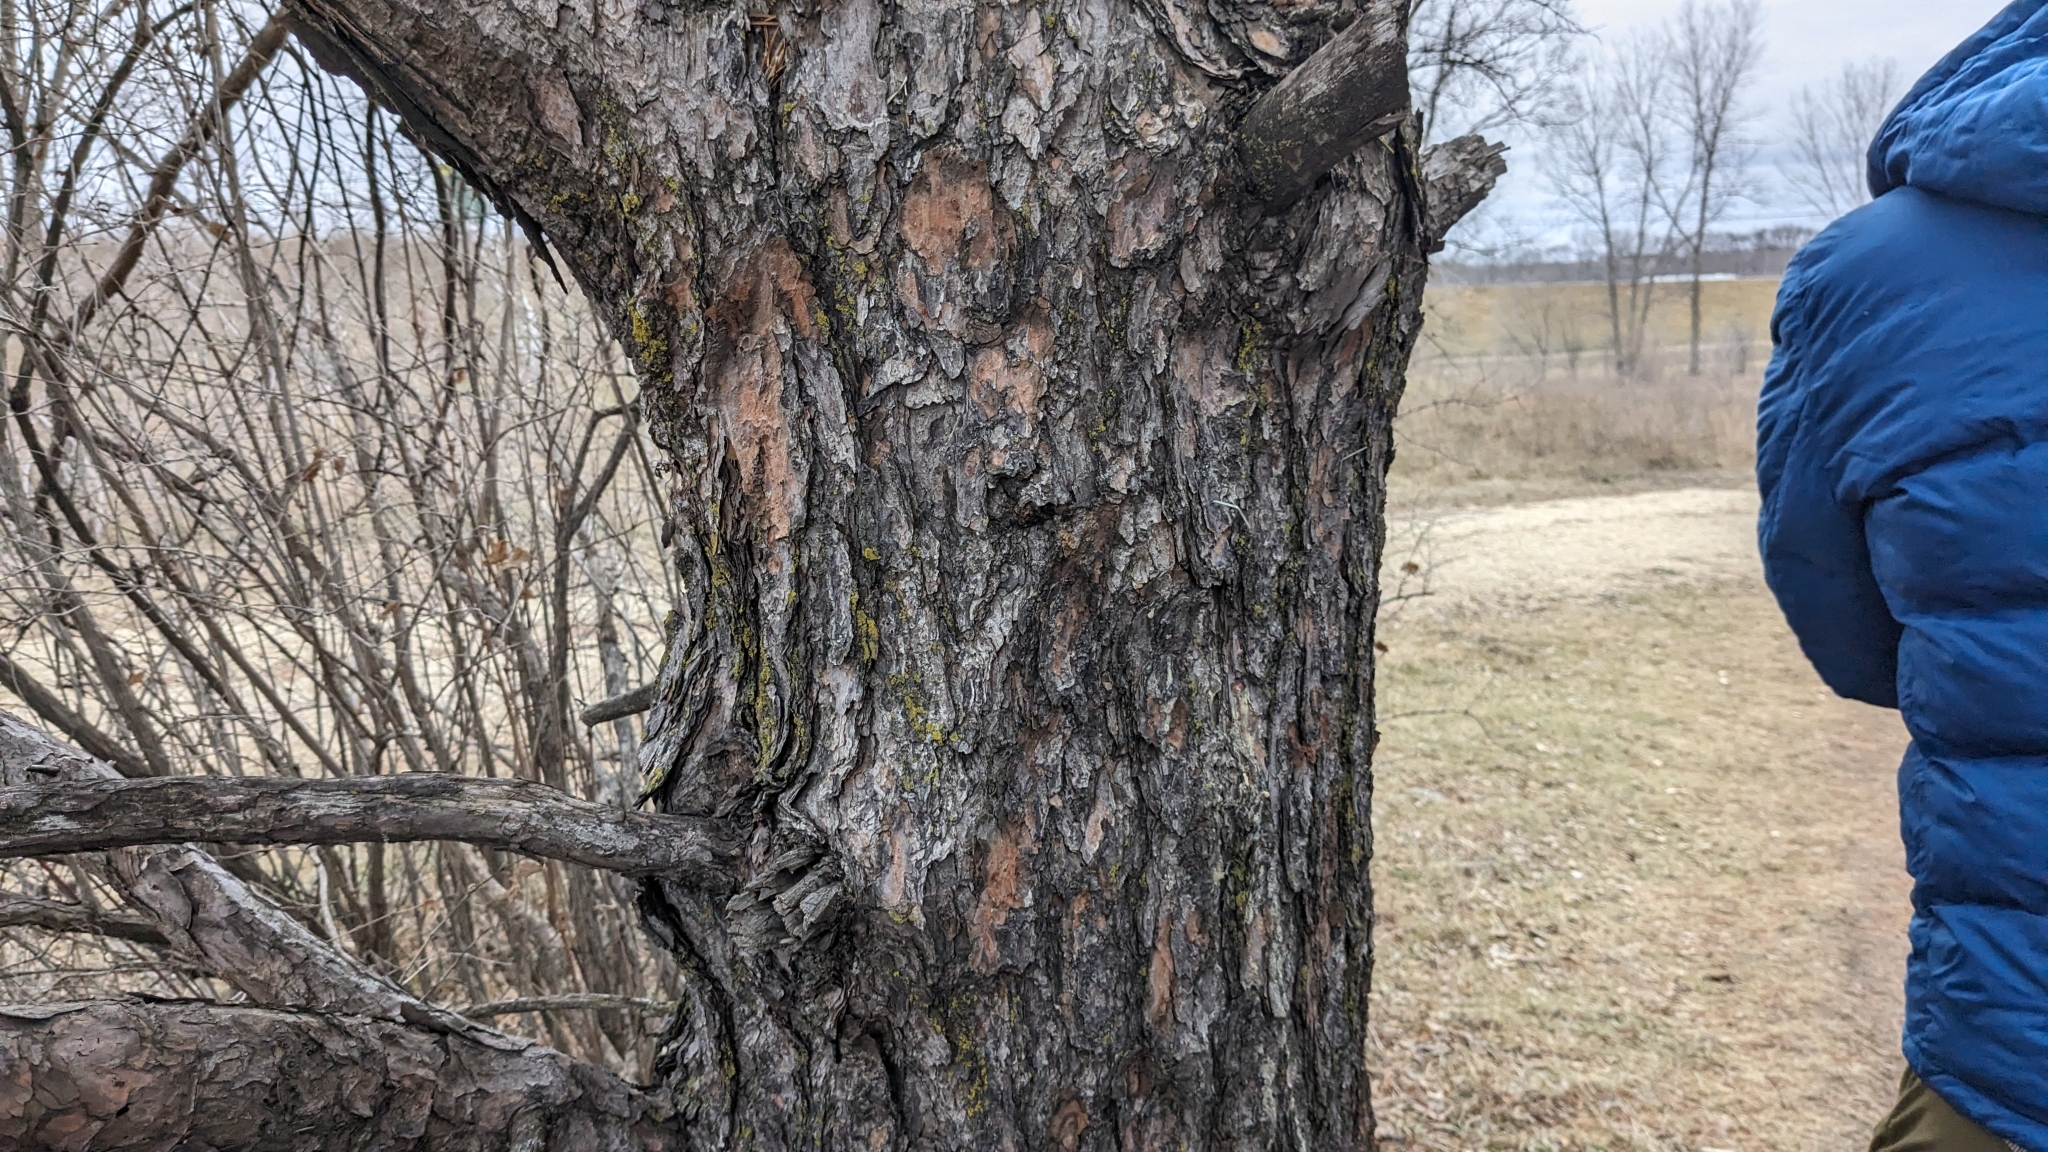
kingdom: Plantae
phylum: Tracheophyta
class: Pinopsida
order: Pinales
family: Pinaceae
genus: Pinus
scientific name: Pinus banksiana
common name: Jack pine
